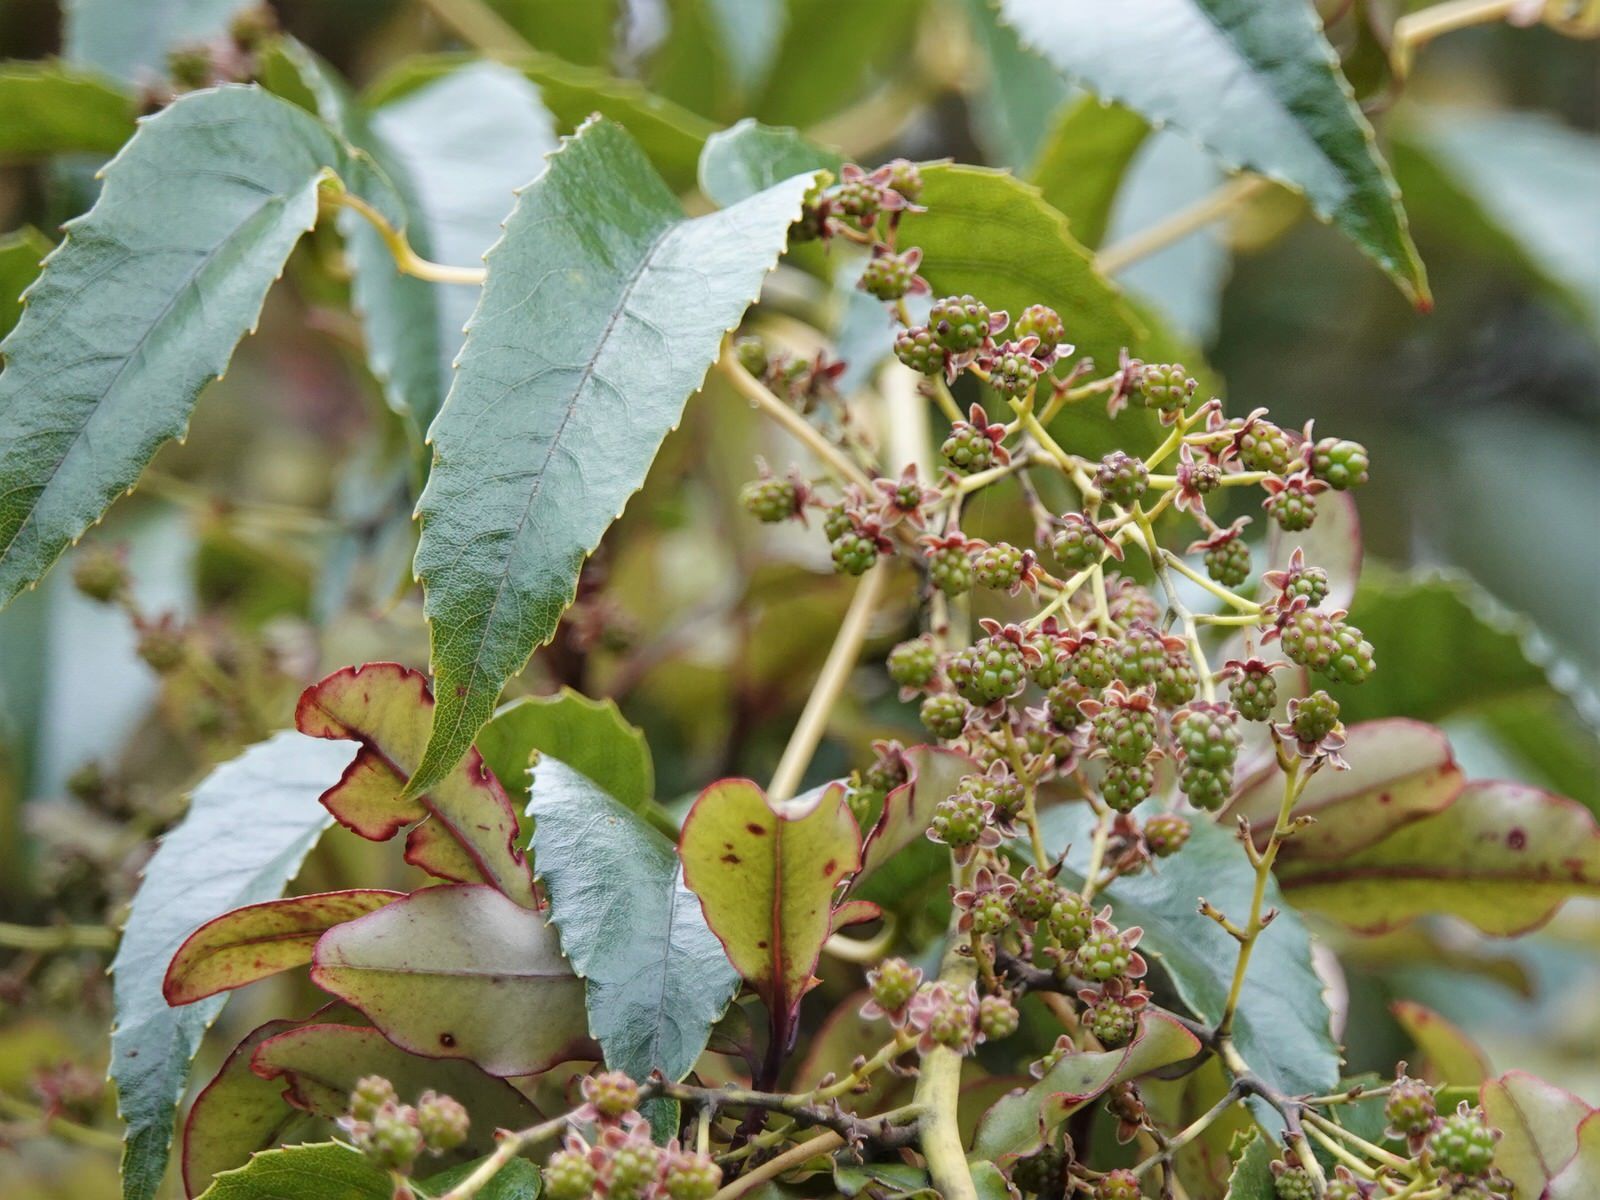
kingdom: Plantae
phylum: Tracheophyta
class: Magnoliopsida
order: Rosales
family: Rosaceae
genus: Rubus
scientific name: Rubus cissoides
